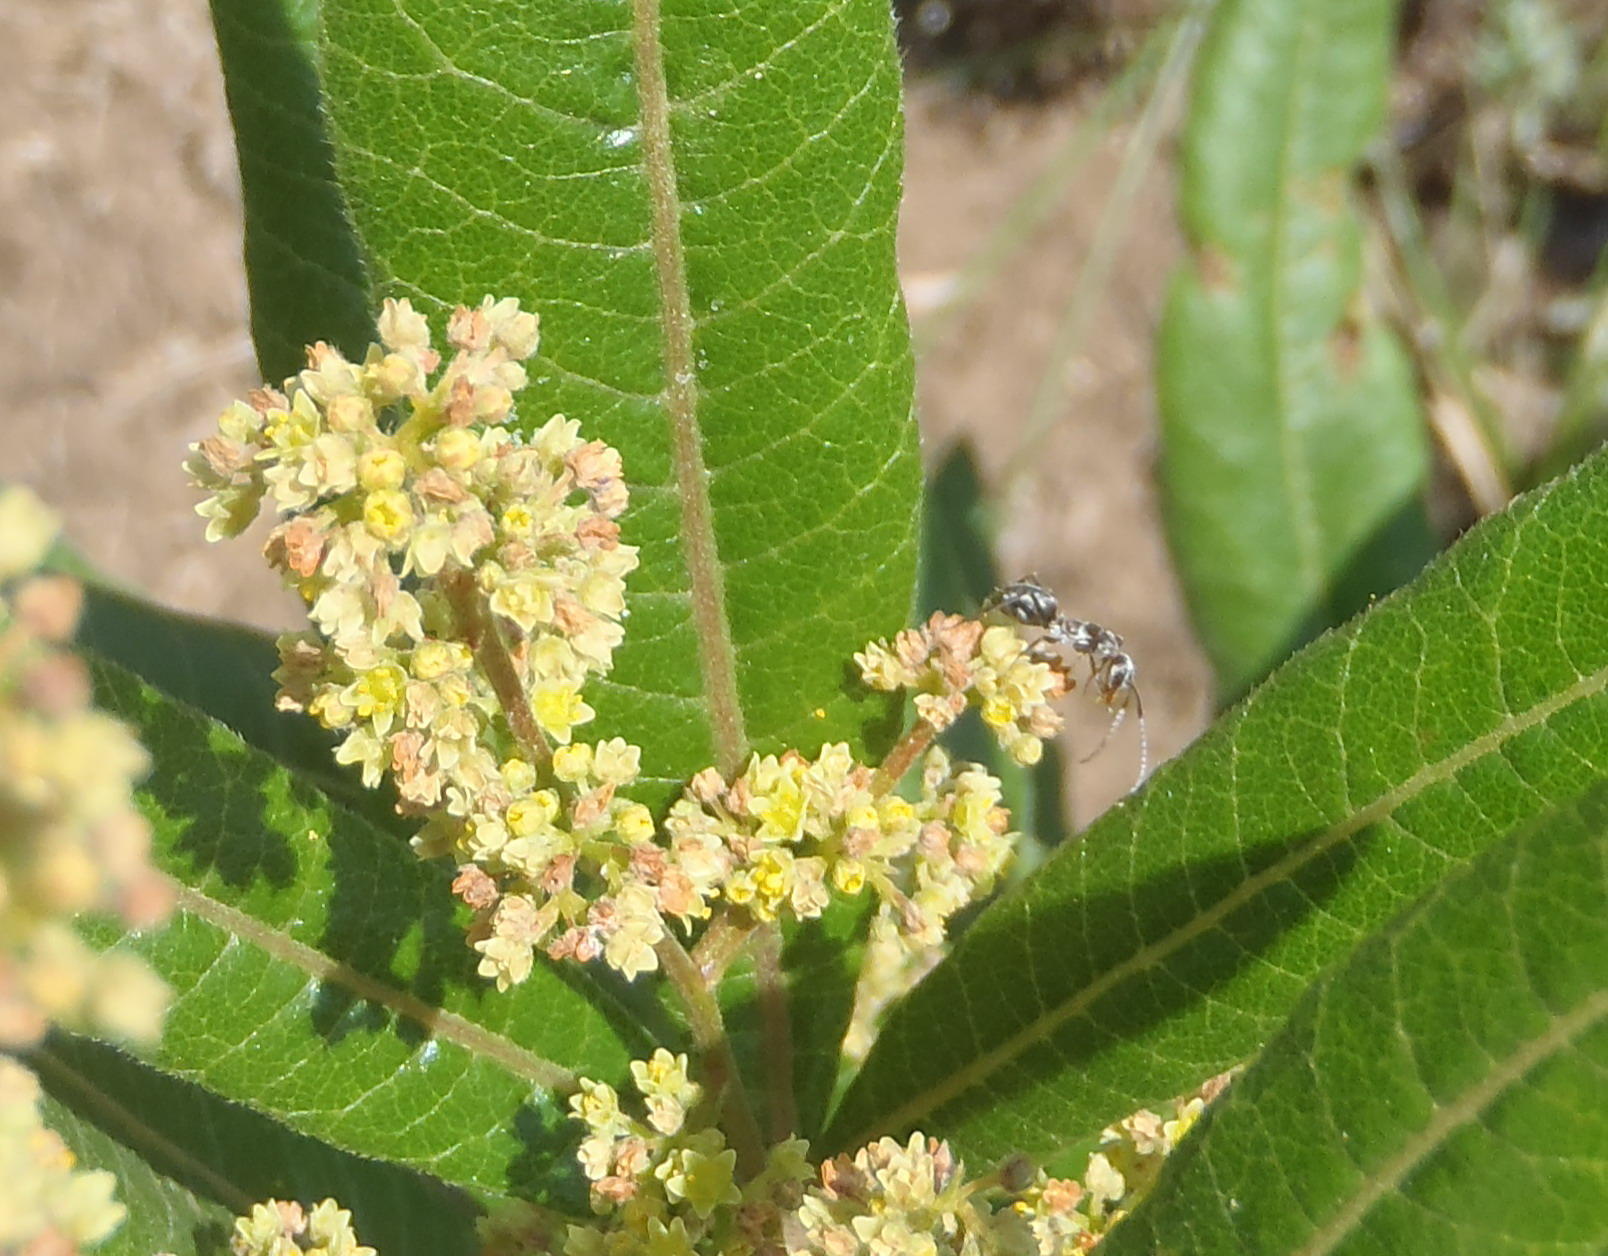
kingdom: Animalia
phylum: Arthropoda
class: Insecta
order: Hymenoptera
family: Formicidae
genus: Linepithema
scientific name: Linepithema humile
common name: Argentine ant
